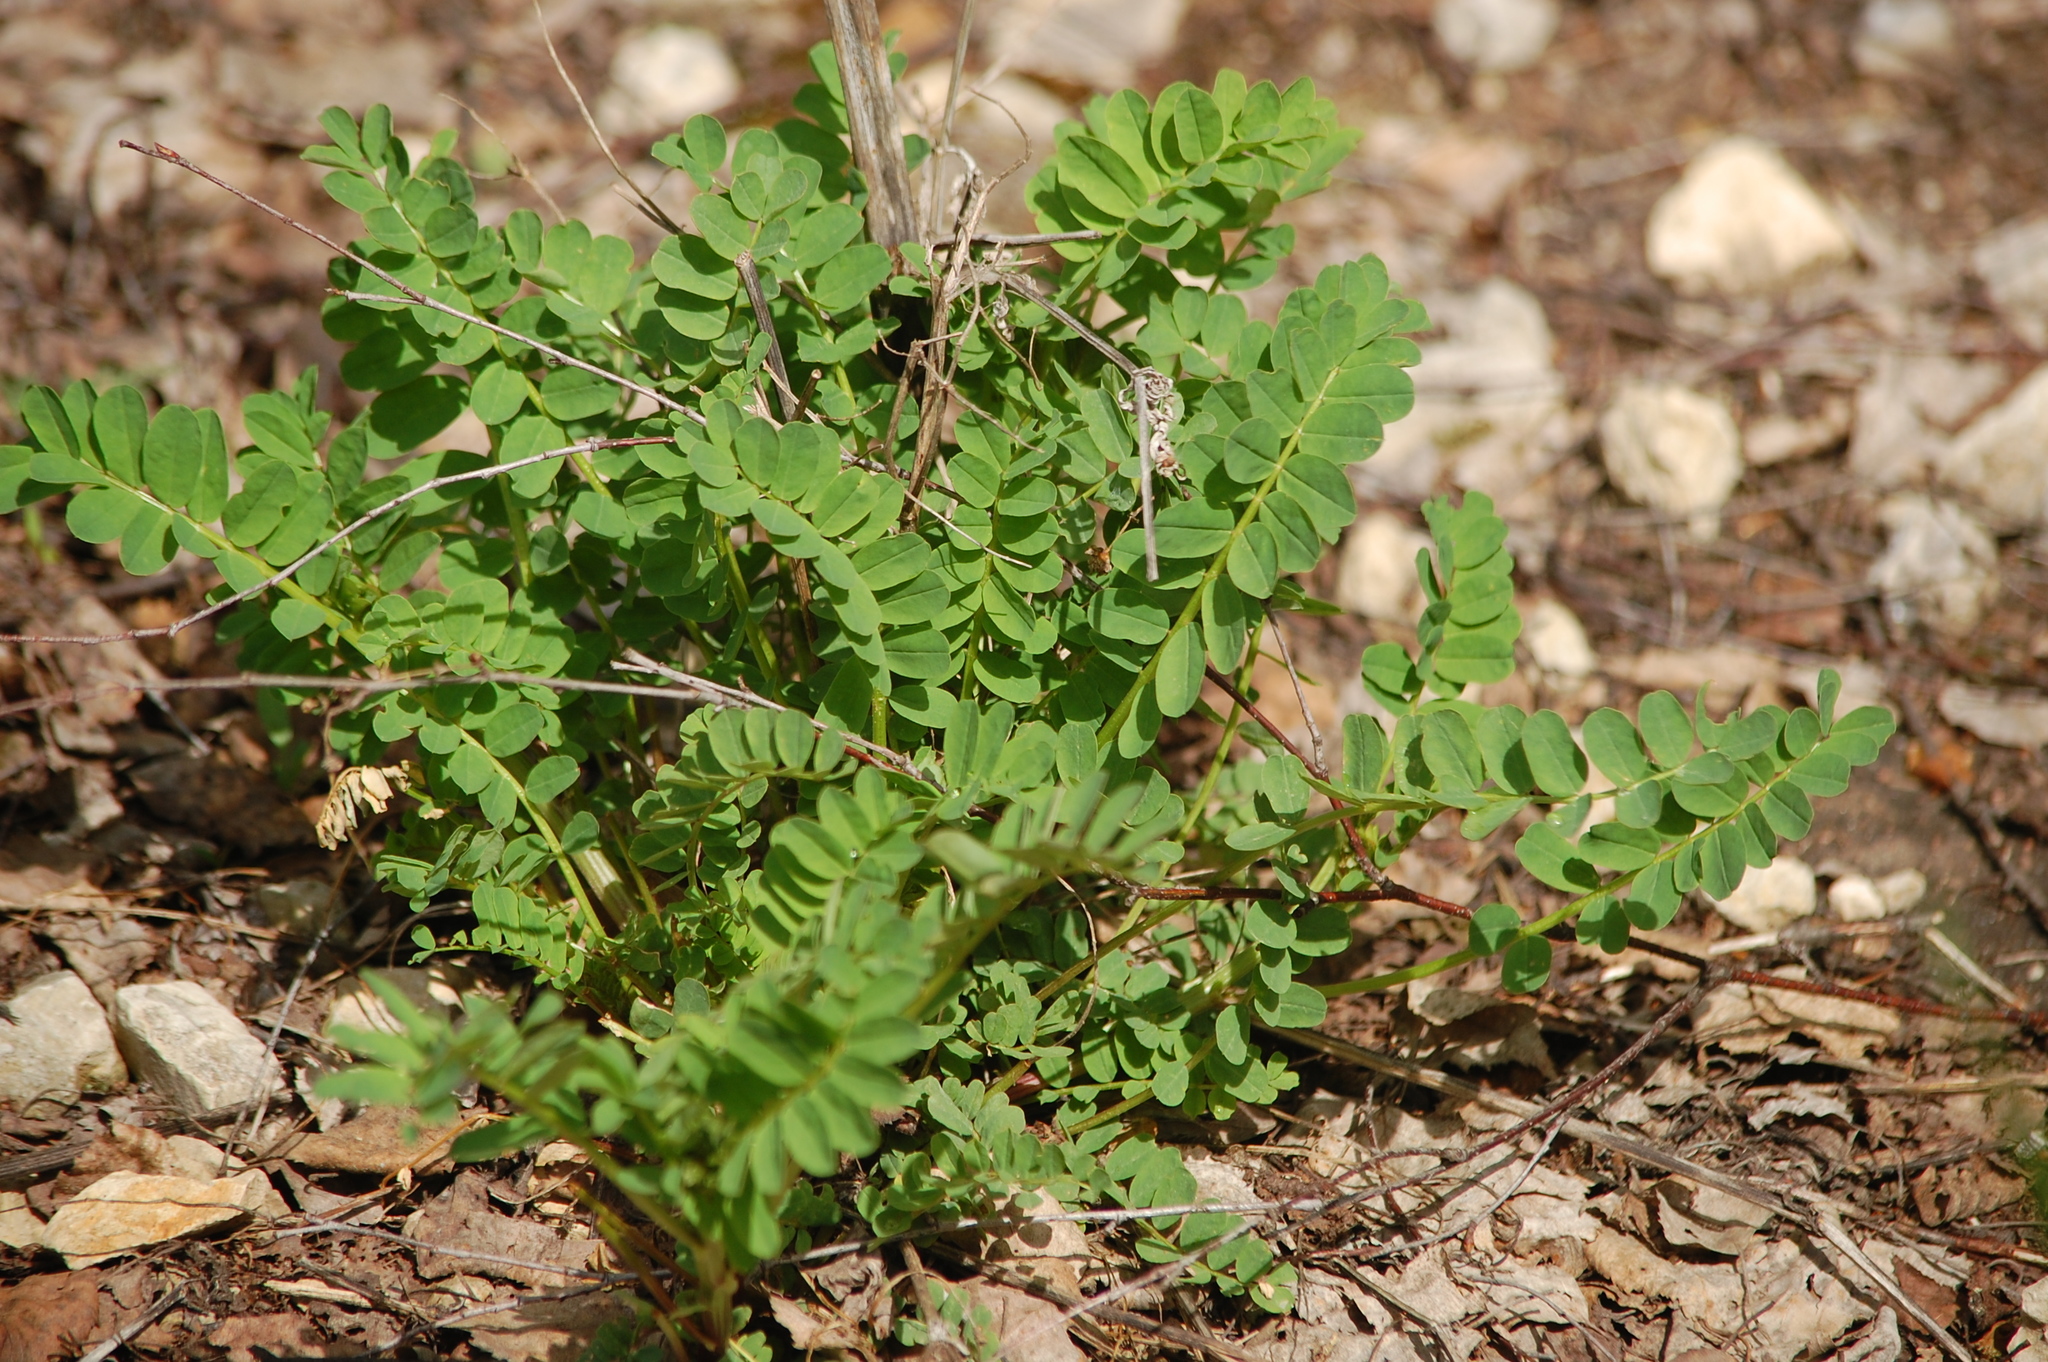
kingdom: Plantae
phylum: Tracheophyta
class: Magnoliopsida
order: Fabales
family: Fabaceae
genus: Coronilla
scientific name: Coronilla varia
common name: Crownvetch
